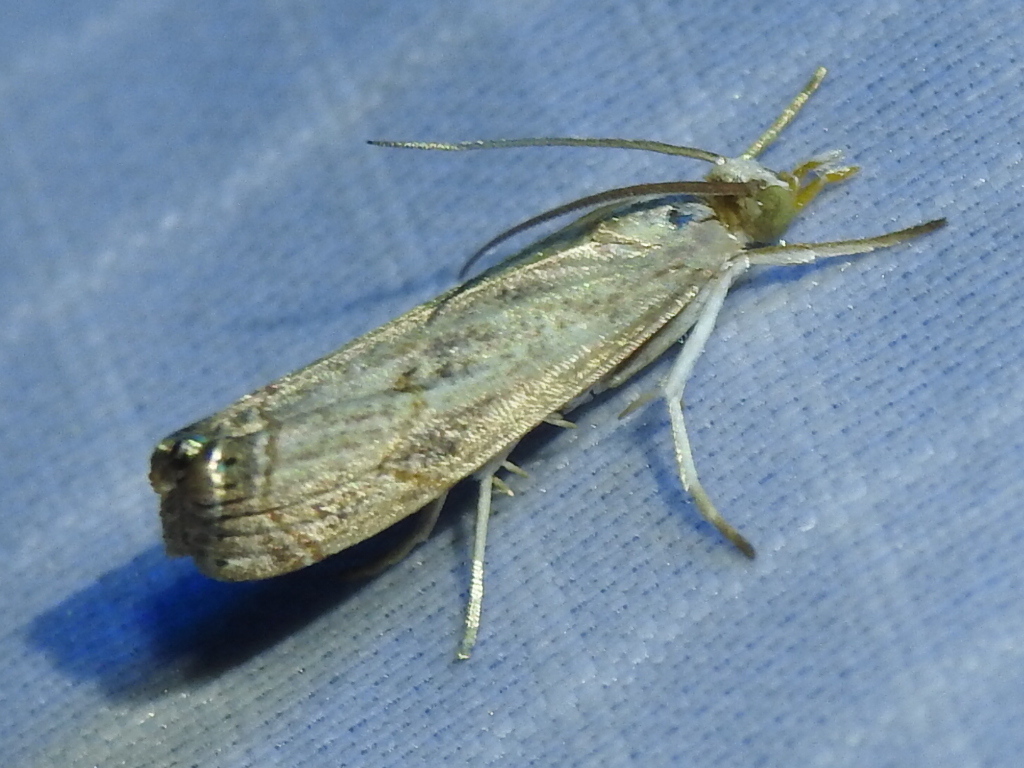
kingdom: Animalia
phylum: Arthropoda
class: Insecta
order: Lepidoptera
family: Crambidae
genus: Parapediasia
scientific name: Parapediasia teterellus
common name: Bluegrass webworm moth
